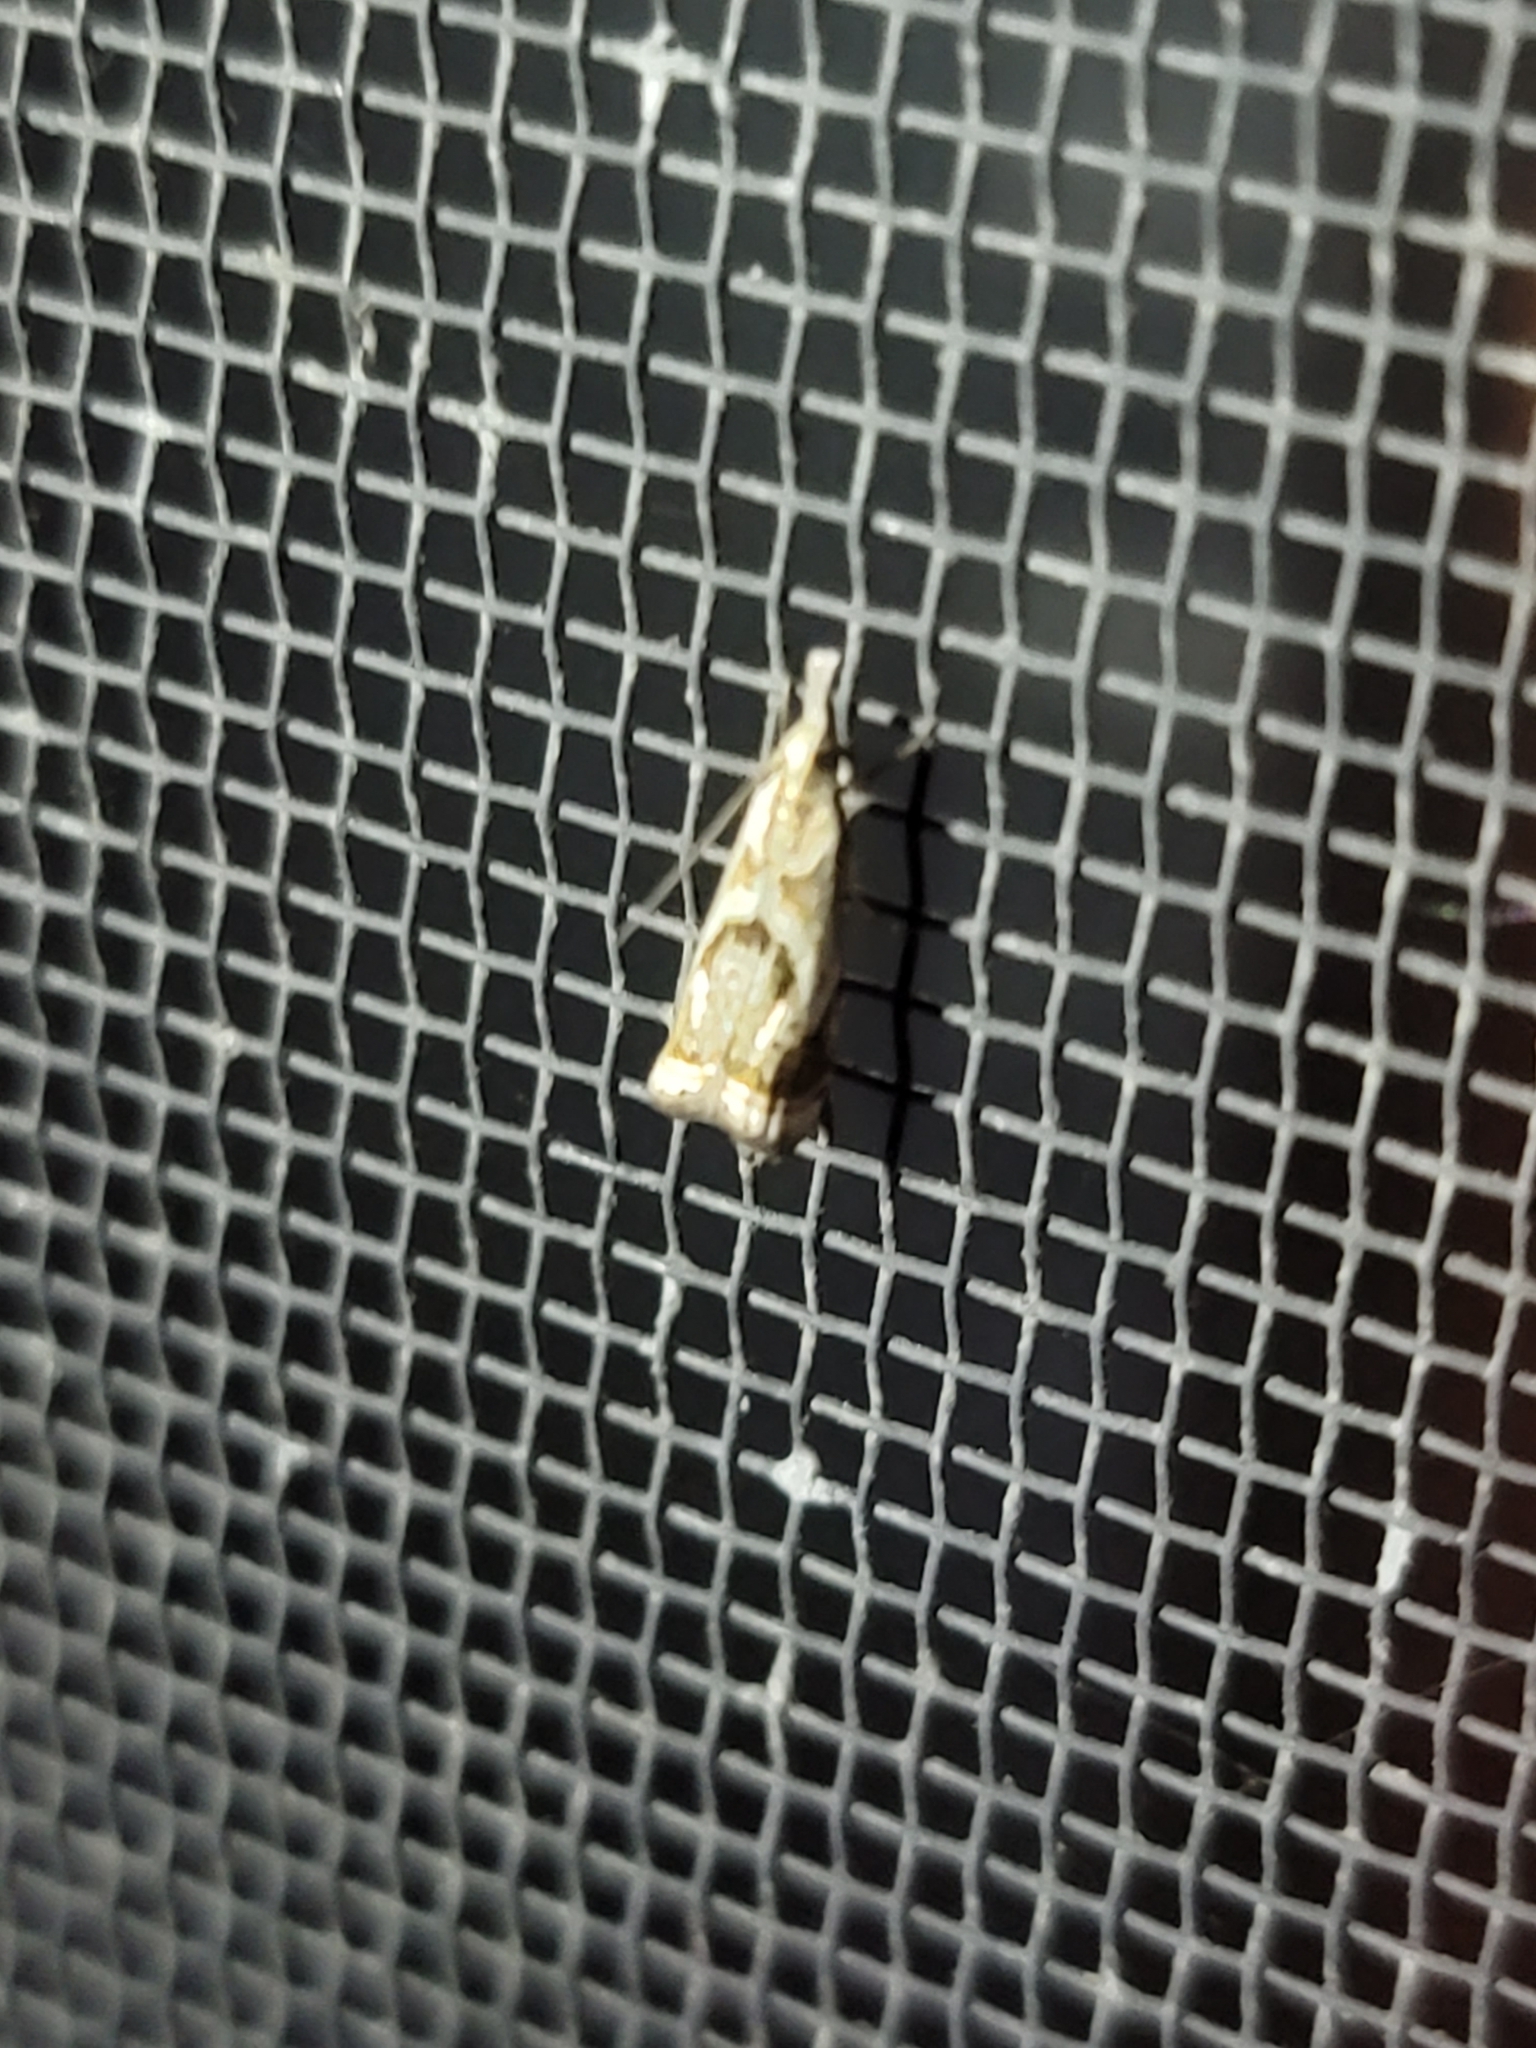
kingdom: Animalia
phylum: Arthropoda
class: Insecta
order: Lepidoptera
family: Crambidae
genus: Microcrambus
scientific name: Microcrambus elegans
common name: Elegant grass-veneer
